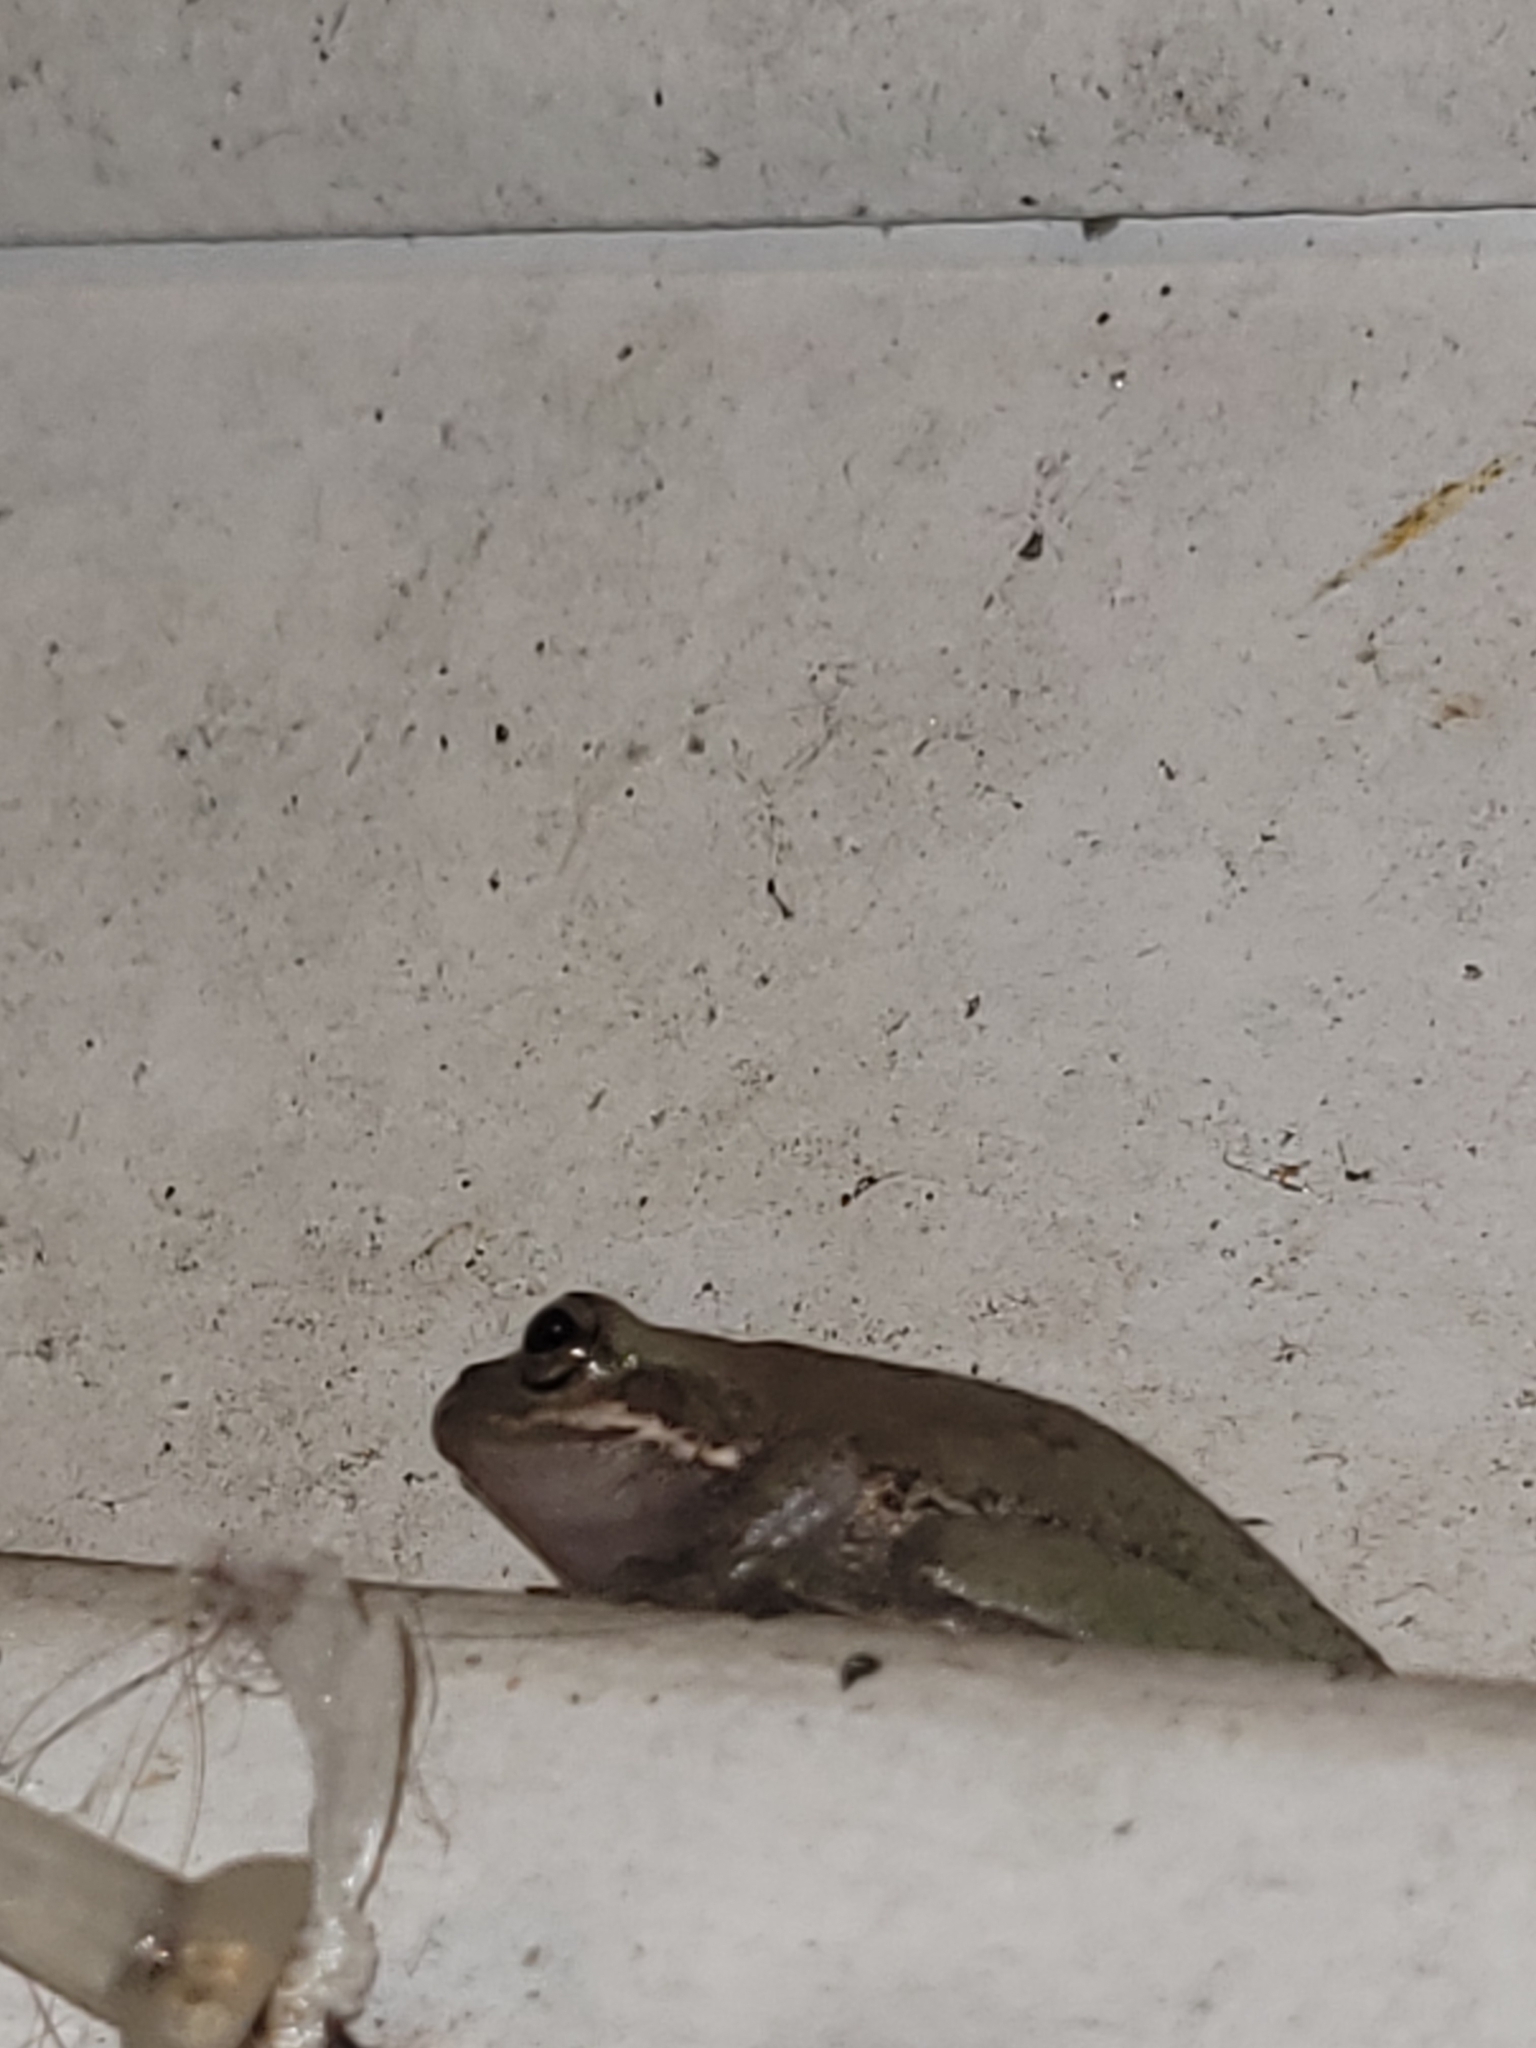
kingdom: Animalia
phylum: Chordata
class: Amphibia
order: Anura
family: Hylidae
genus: Dryophytes
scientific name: Dryophytes squirellus
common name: Squirrel treefrog
